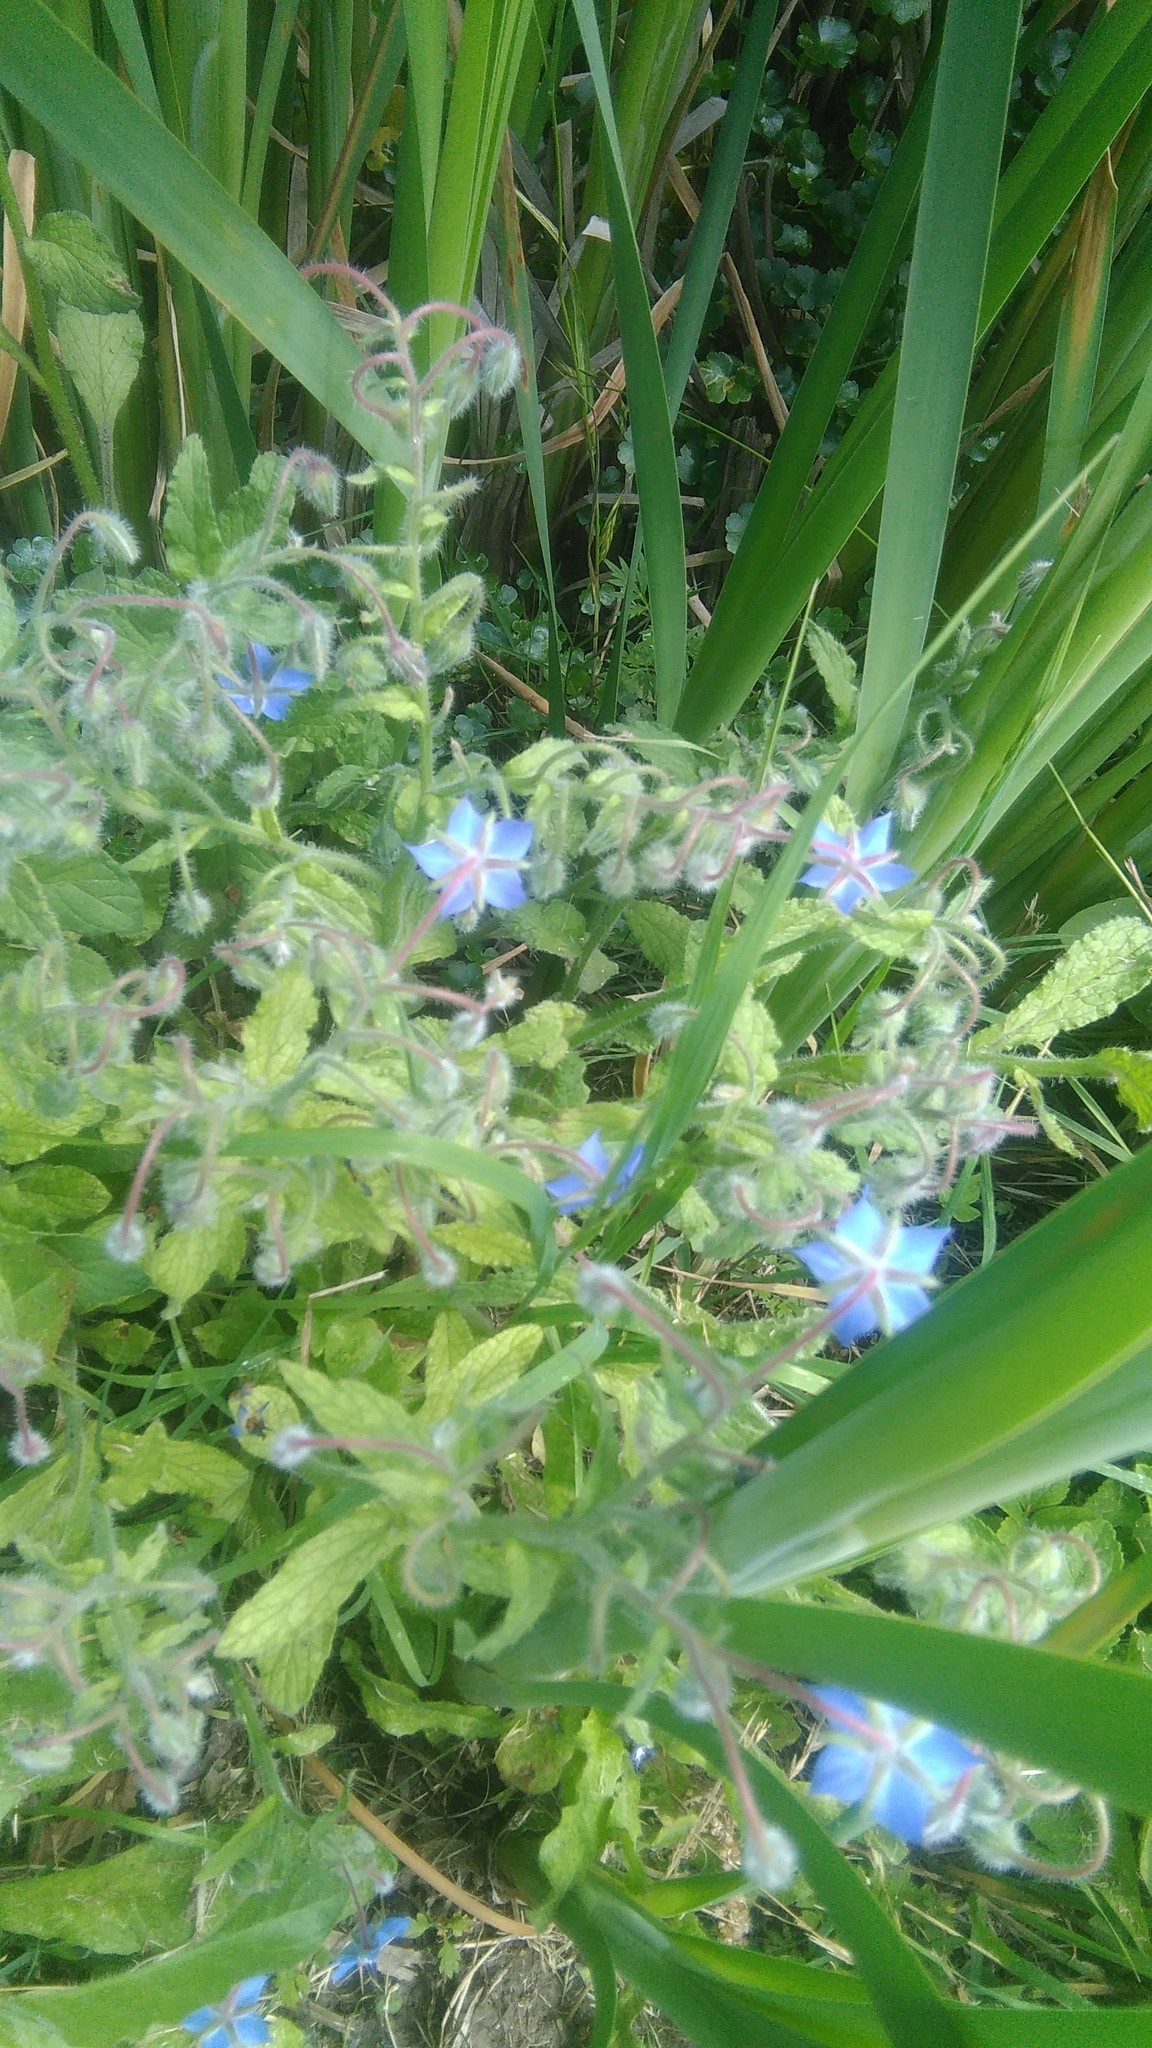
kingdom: Plantae
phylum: Tracheophyta
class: Magnoliopsida
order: Boraginales
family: Boraginaceae
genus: Borago
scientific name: Borago officinalis
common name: Borage
